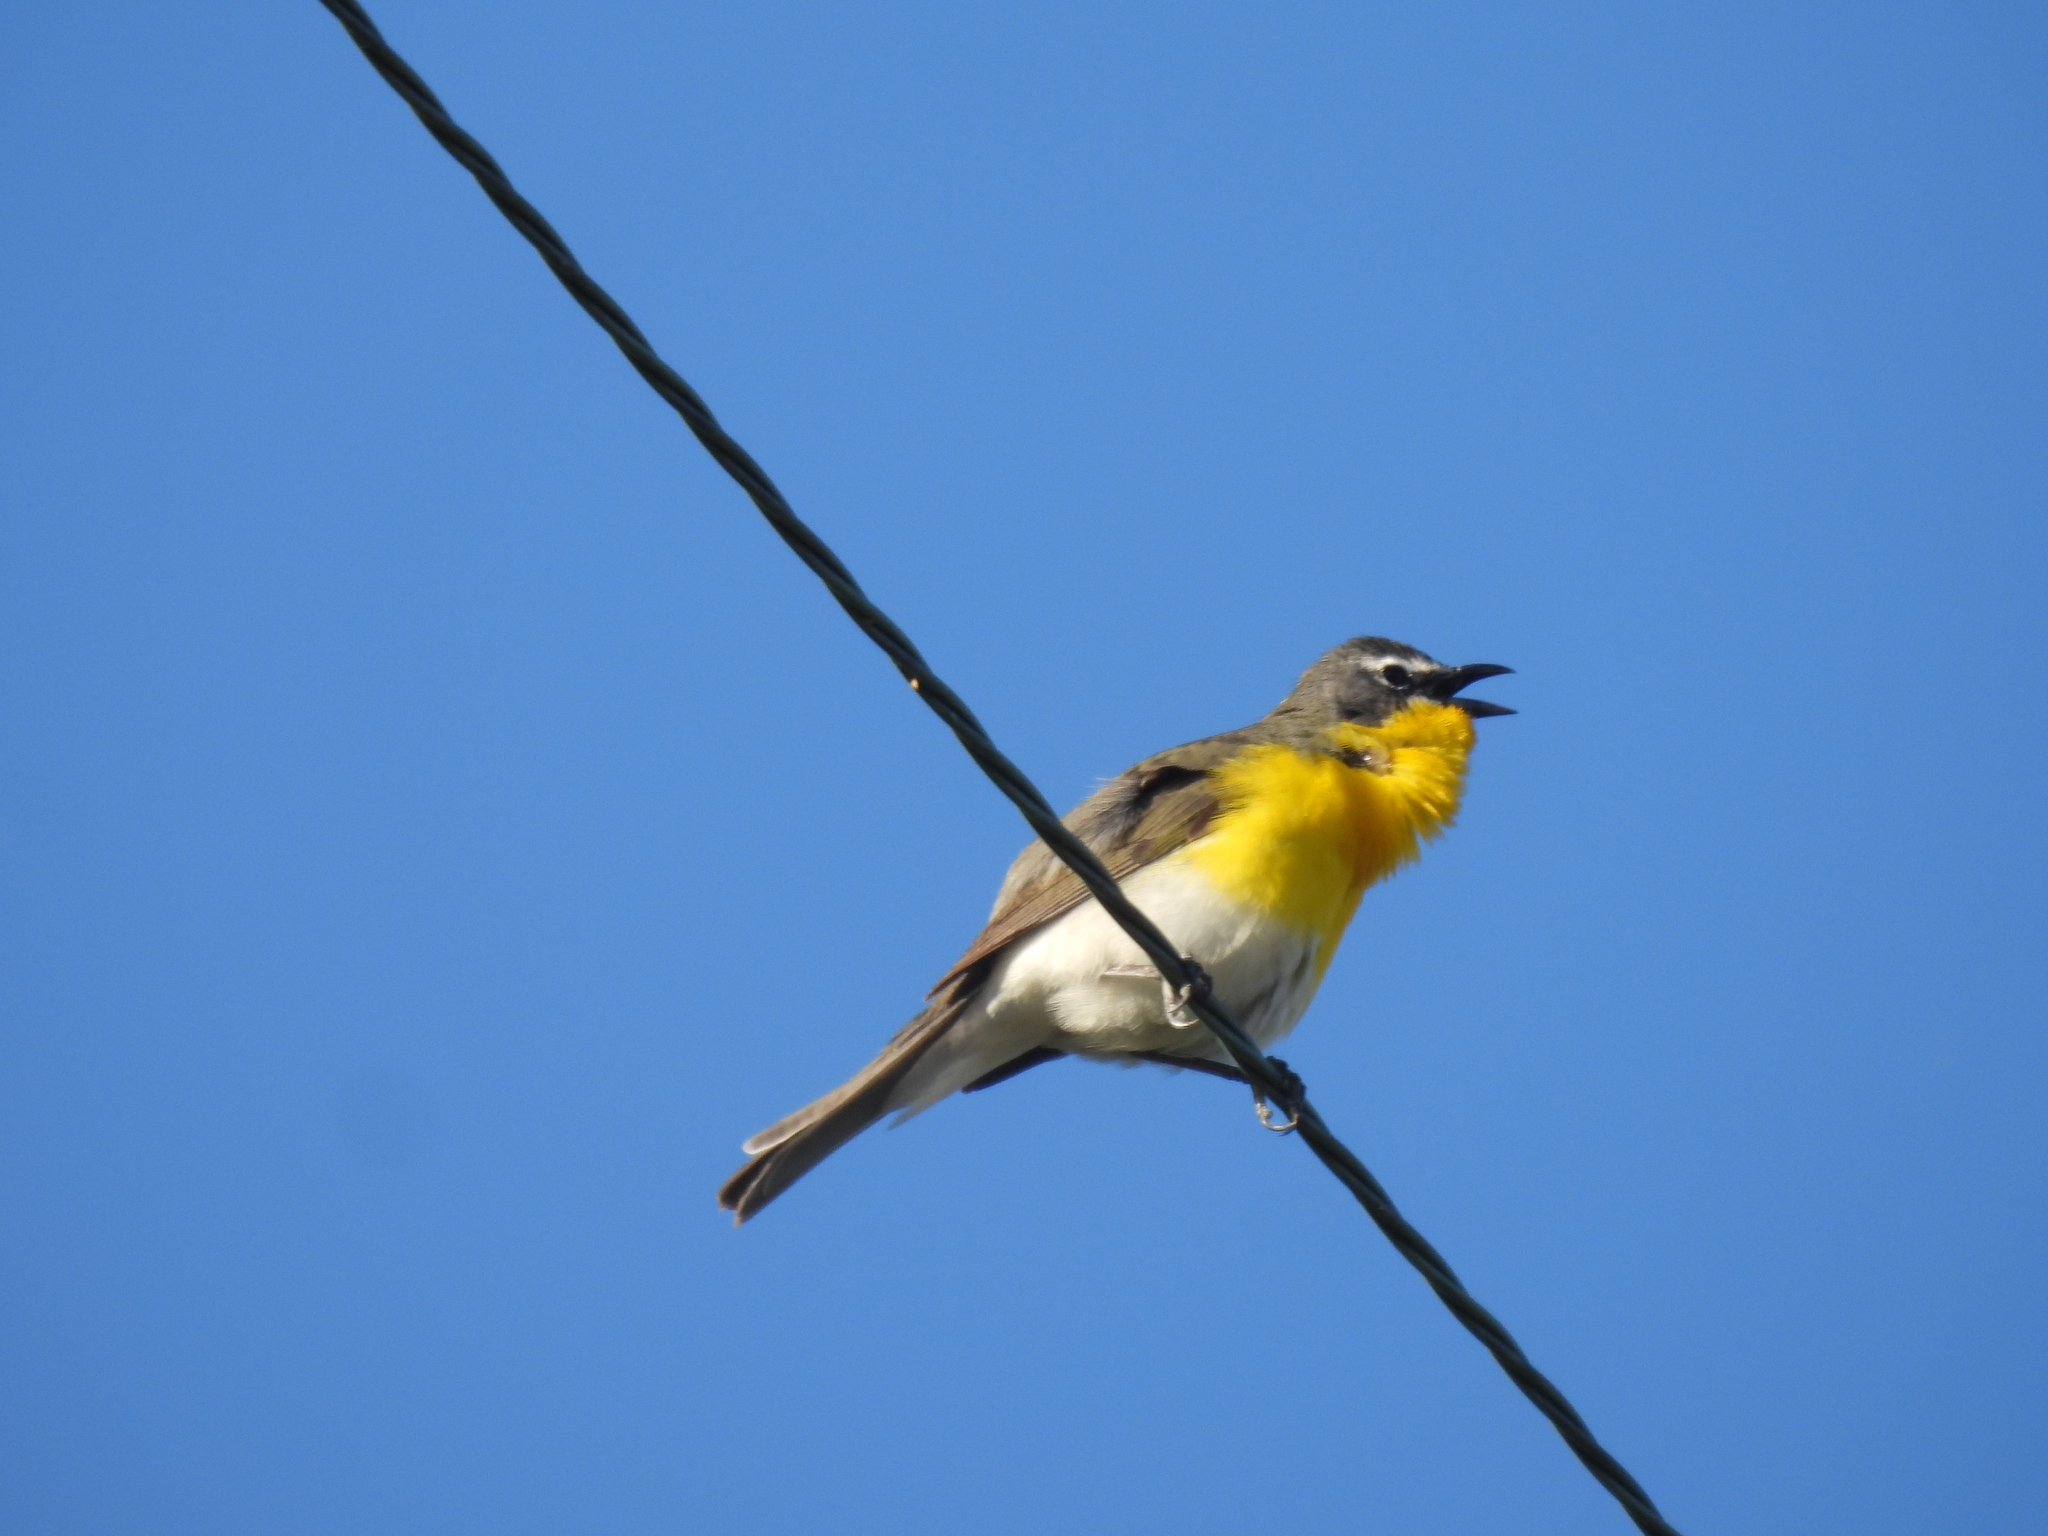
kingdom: Animalia
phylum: Chordata
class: Aves
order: Passeriformes
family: Parulidae
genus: Icteria
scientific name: Icteria virens
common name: Yellow-breasted chat
